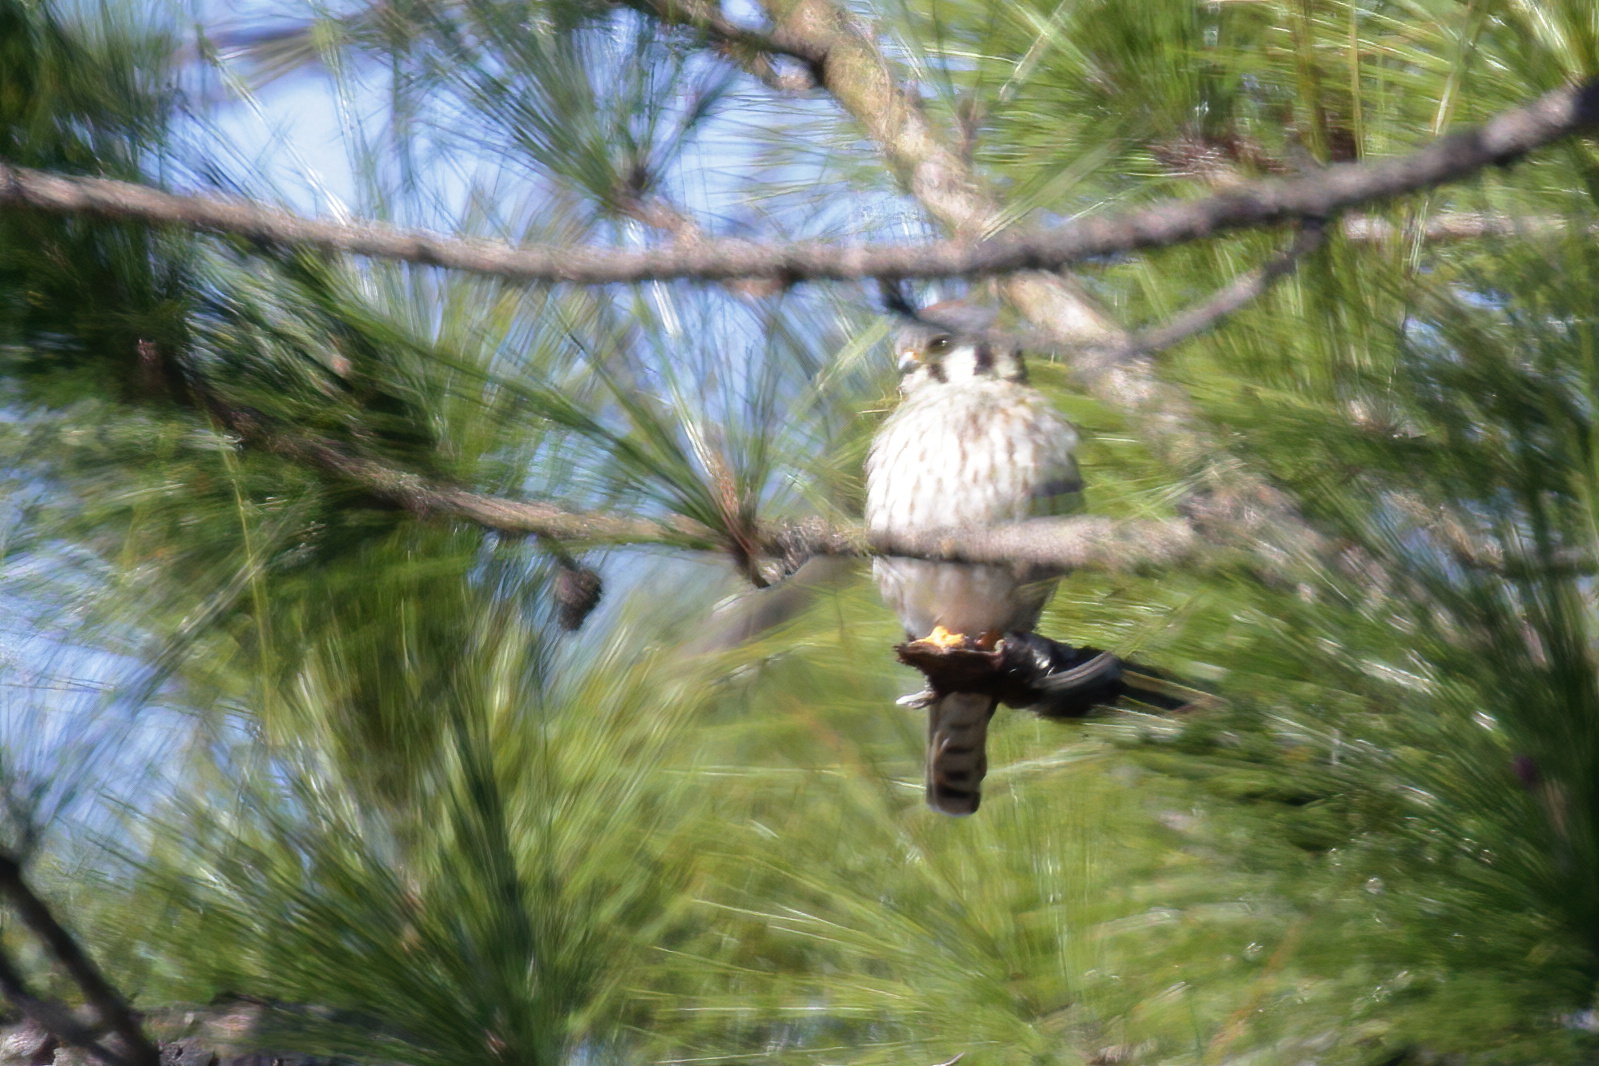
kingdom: Animalia
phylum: Chordata
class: Aves
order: Falconiformes
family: Falconidae
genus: Falco
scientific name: Falco sparverius
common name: American kestrel
